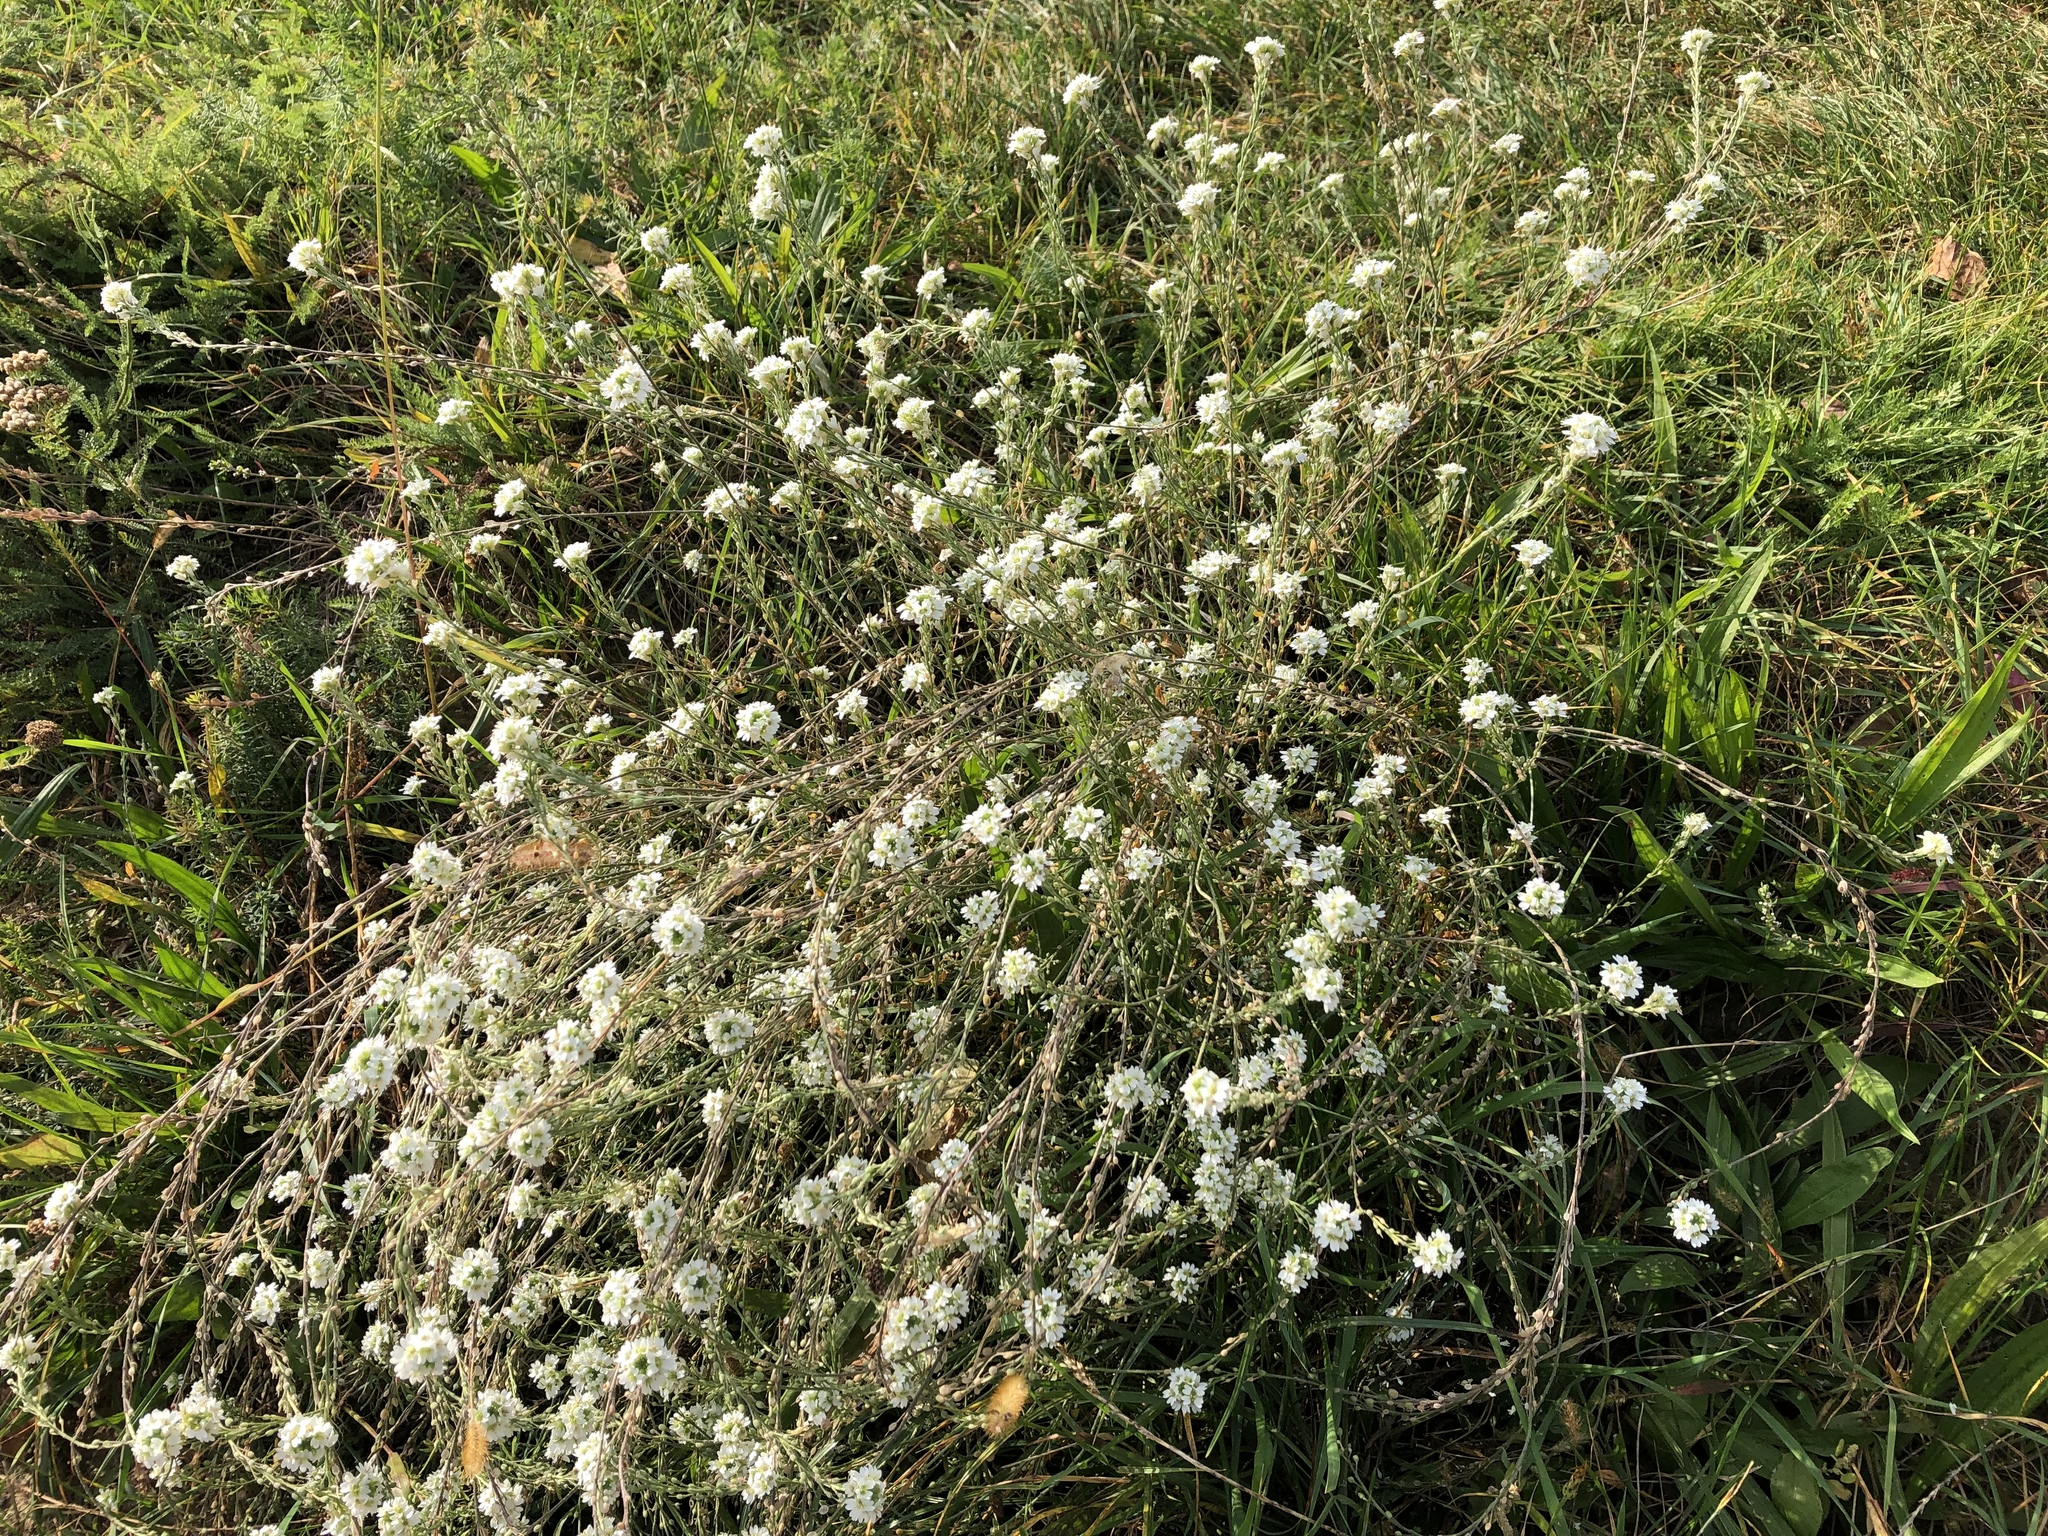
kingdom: Plantae
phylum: Tracheophyta
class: Magnoliopsida
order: Brassicales
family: Brassicaceae
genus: Berteroa
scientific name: Berteroa incana
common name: Hoary alison
